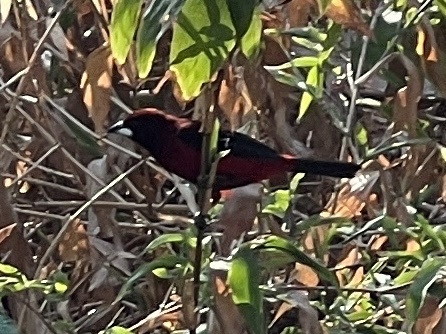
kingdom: Animalia
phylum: Chordata
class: Aves
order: Passeriformes
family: Thraupidae
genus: Ramphocelus
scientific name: Ramphocelus dimidiatus
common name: Crimson-backed tanager
